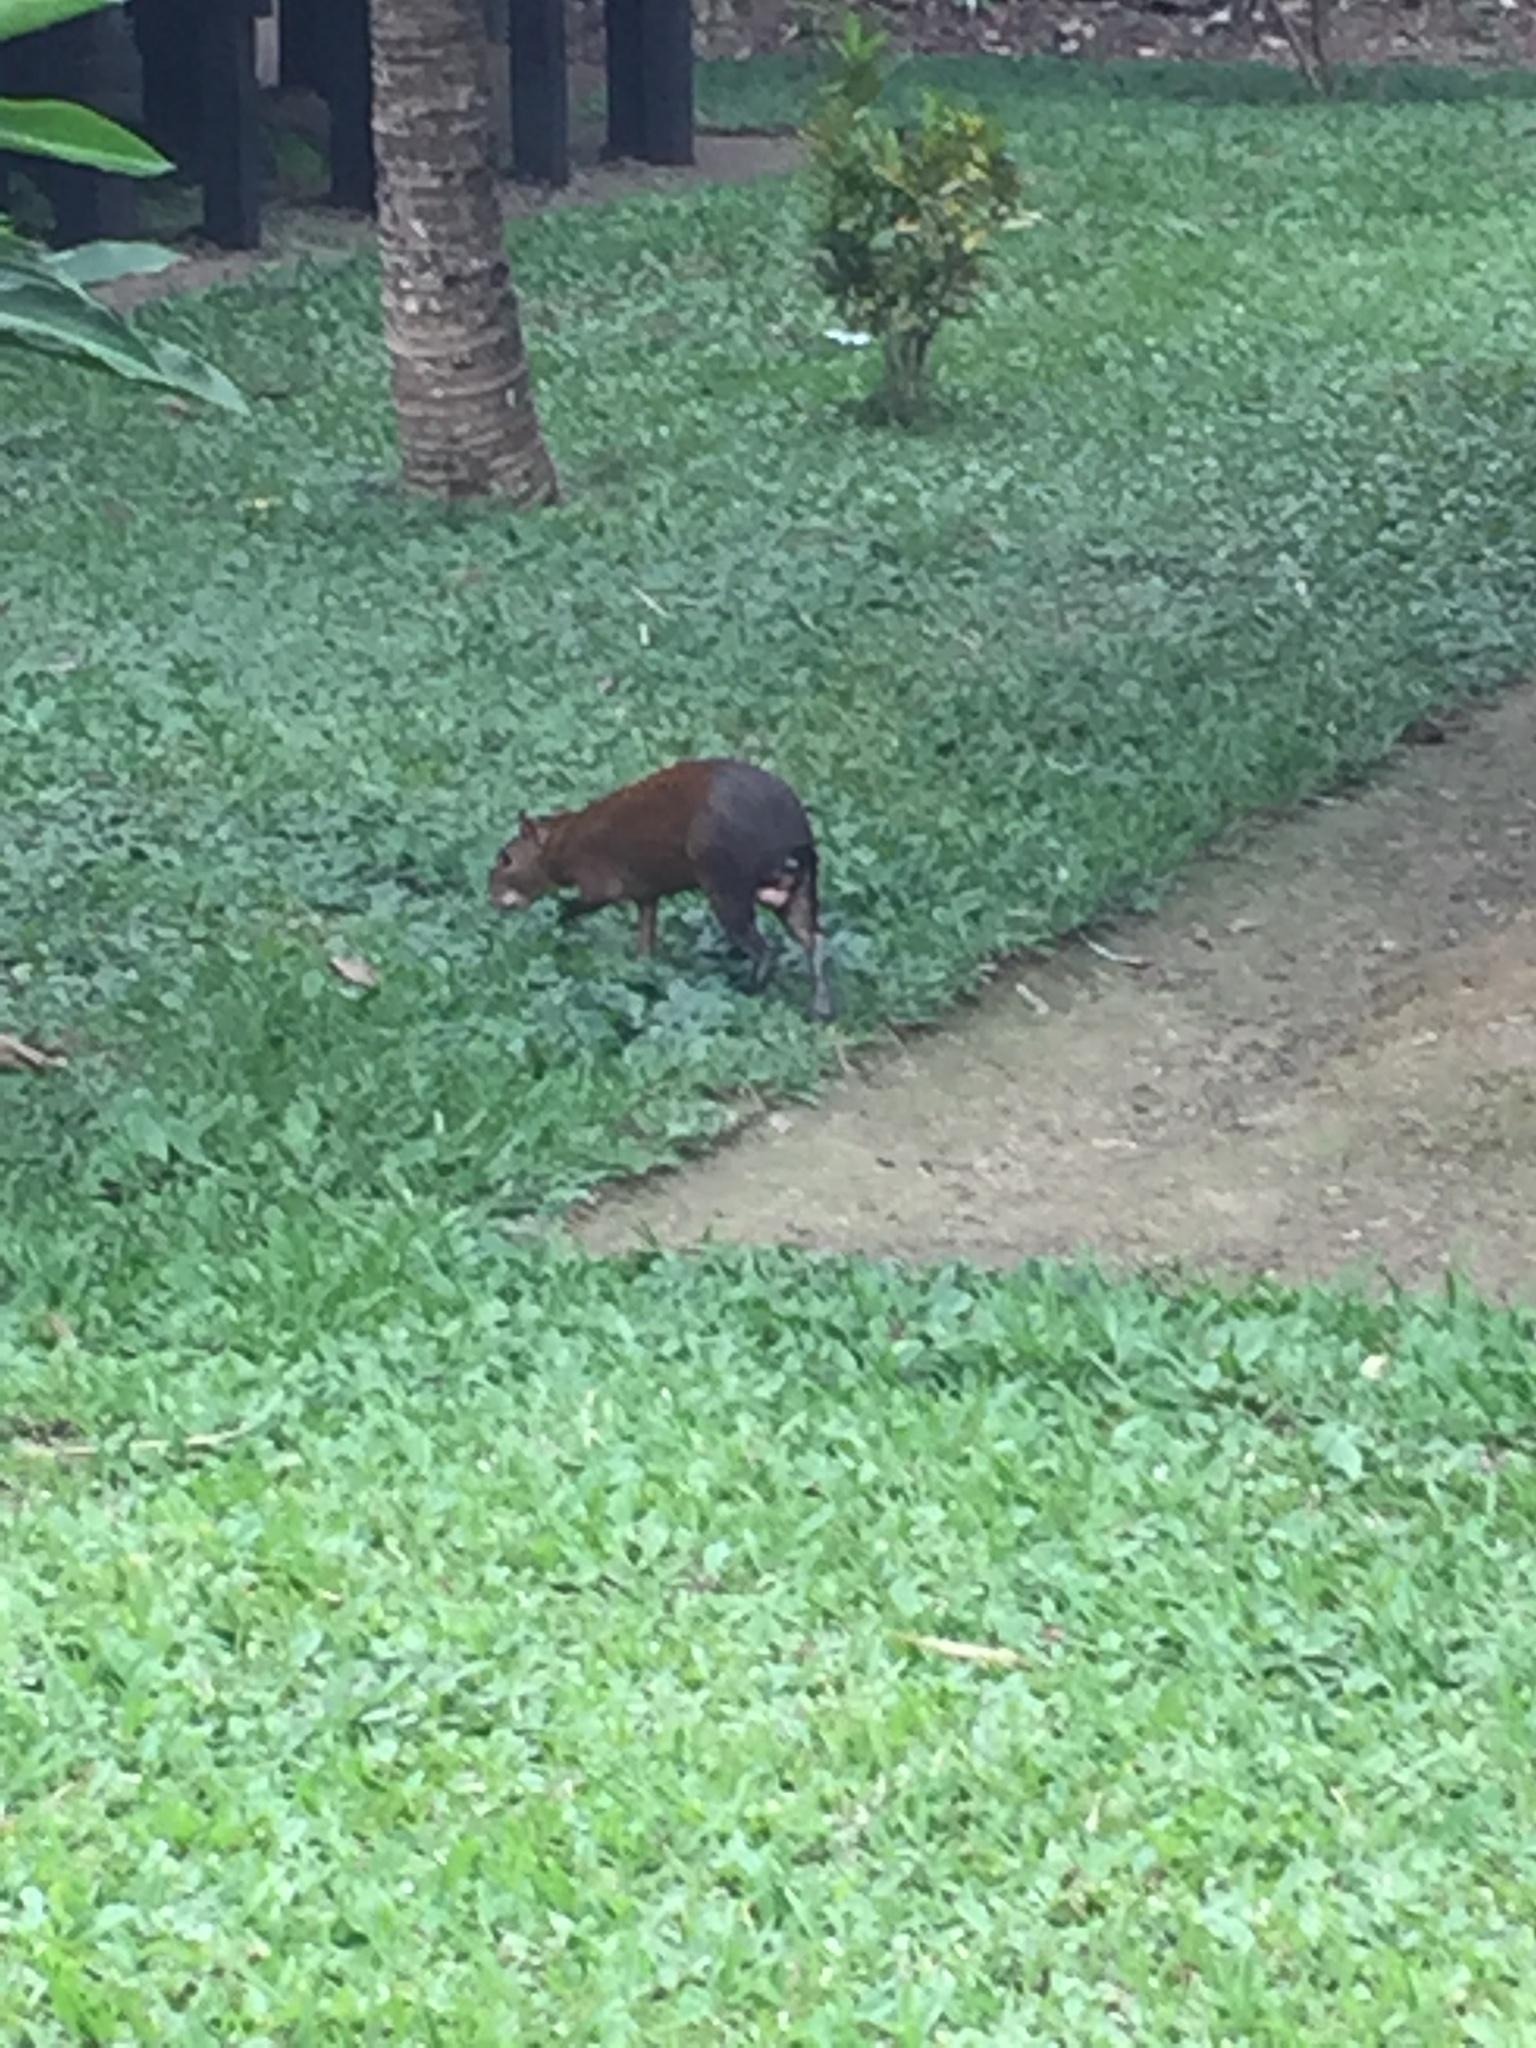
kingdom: Animalia
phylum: Chordata
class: Mammalia
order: Rodentia
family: Dasyproctidae
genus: Dasyprocta
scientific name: Dasyprocta variegata
